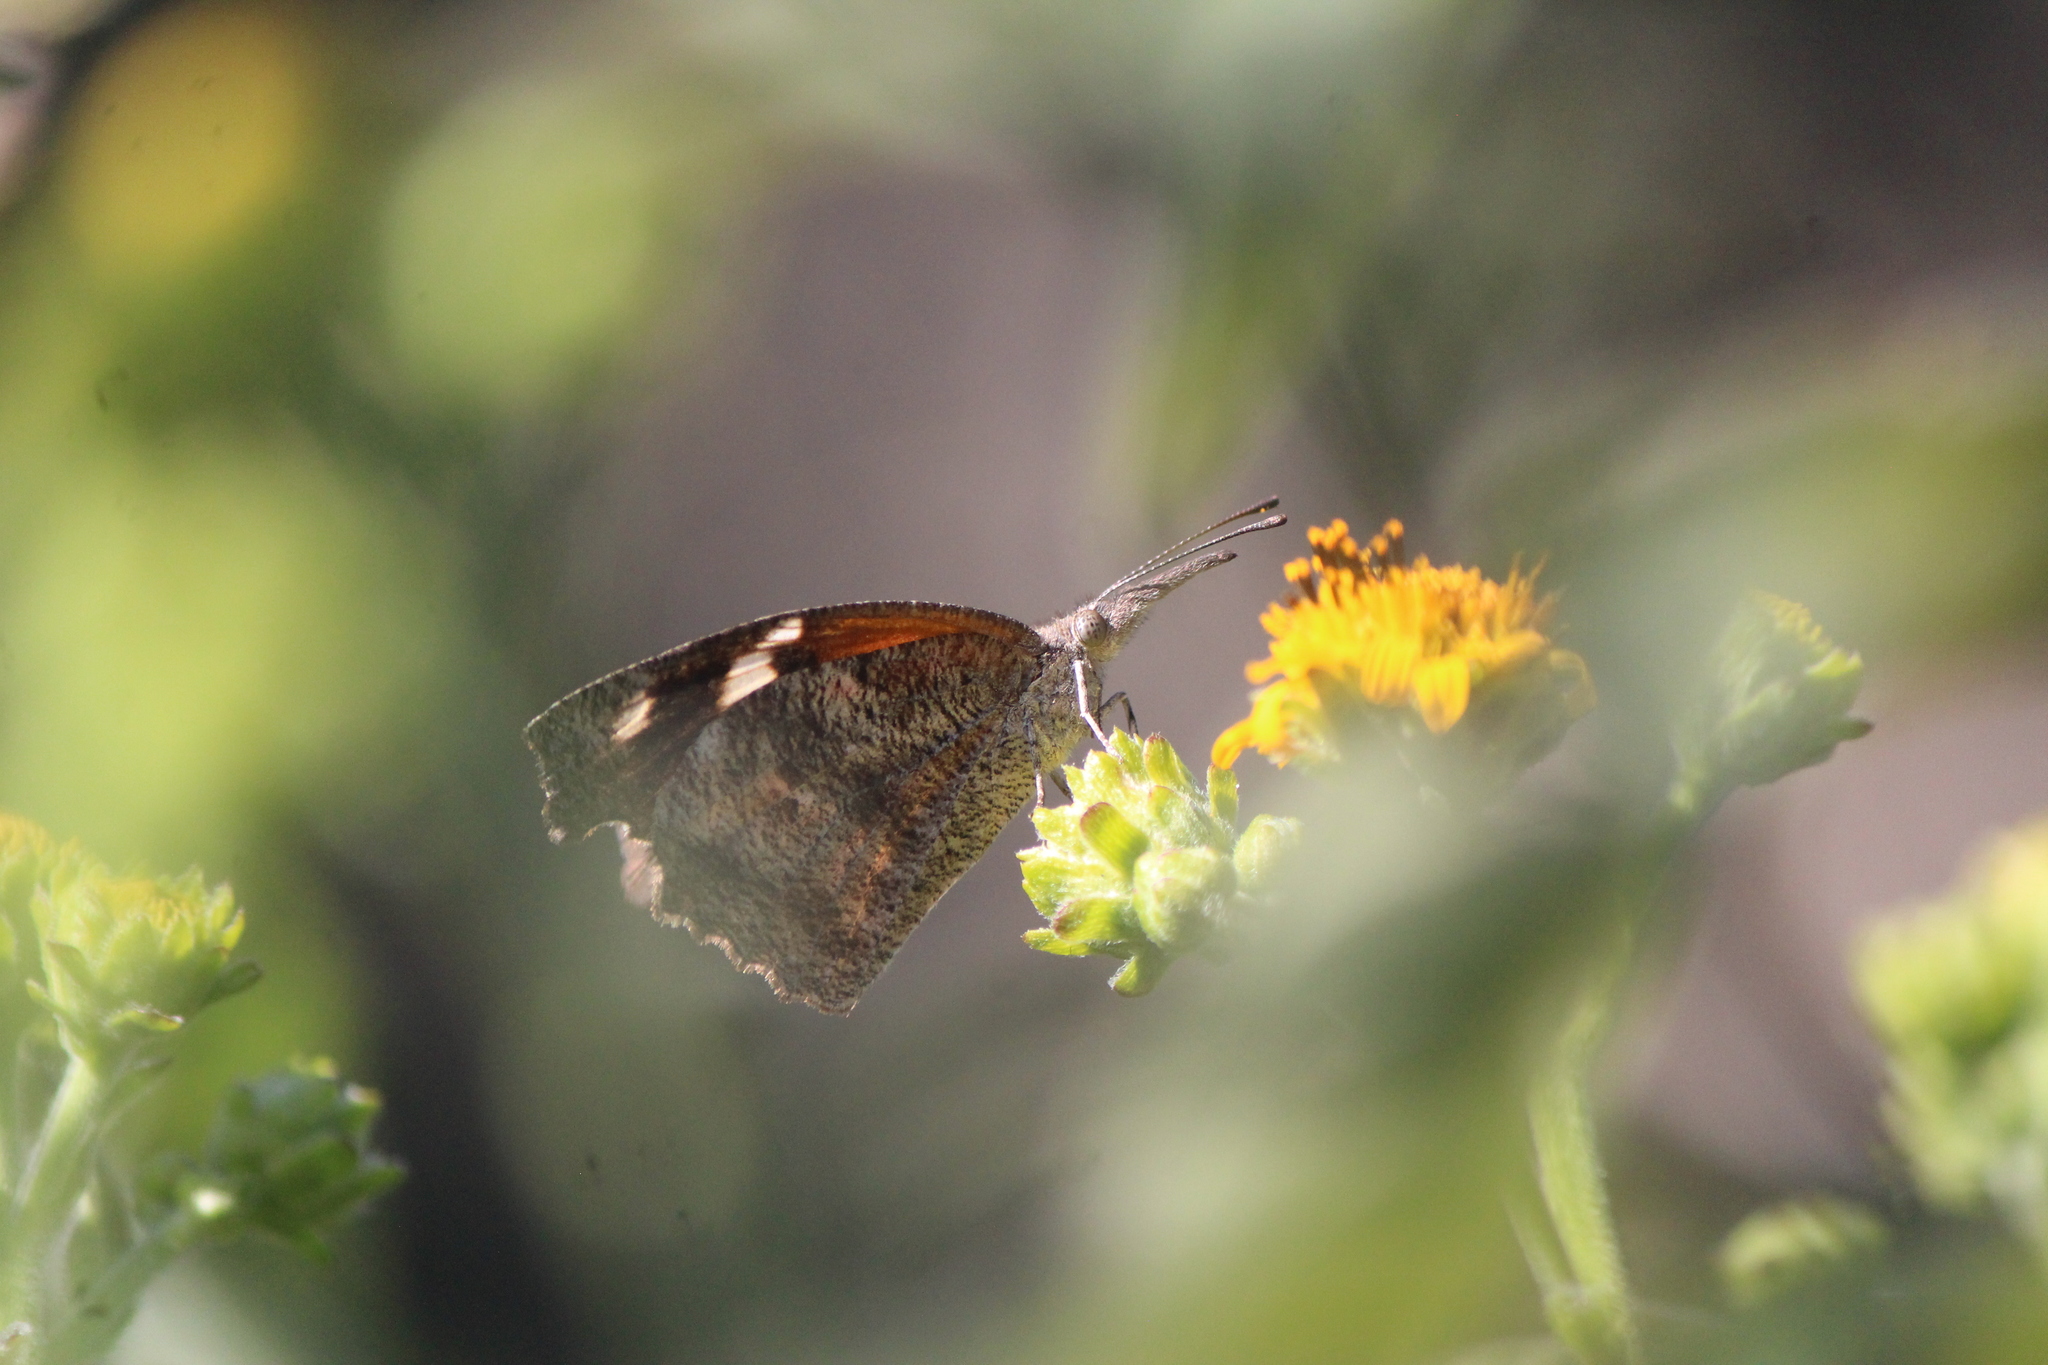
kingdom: Animalia
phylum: Arthropoda
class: Insecta
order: Lepidoptera
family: Nymphalidae
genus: Libytheana
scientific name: Libytheana carinenta
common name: American snout
